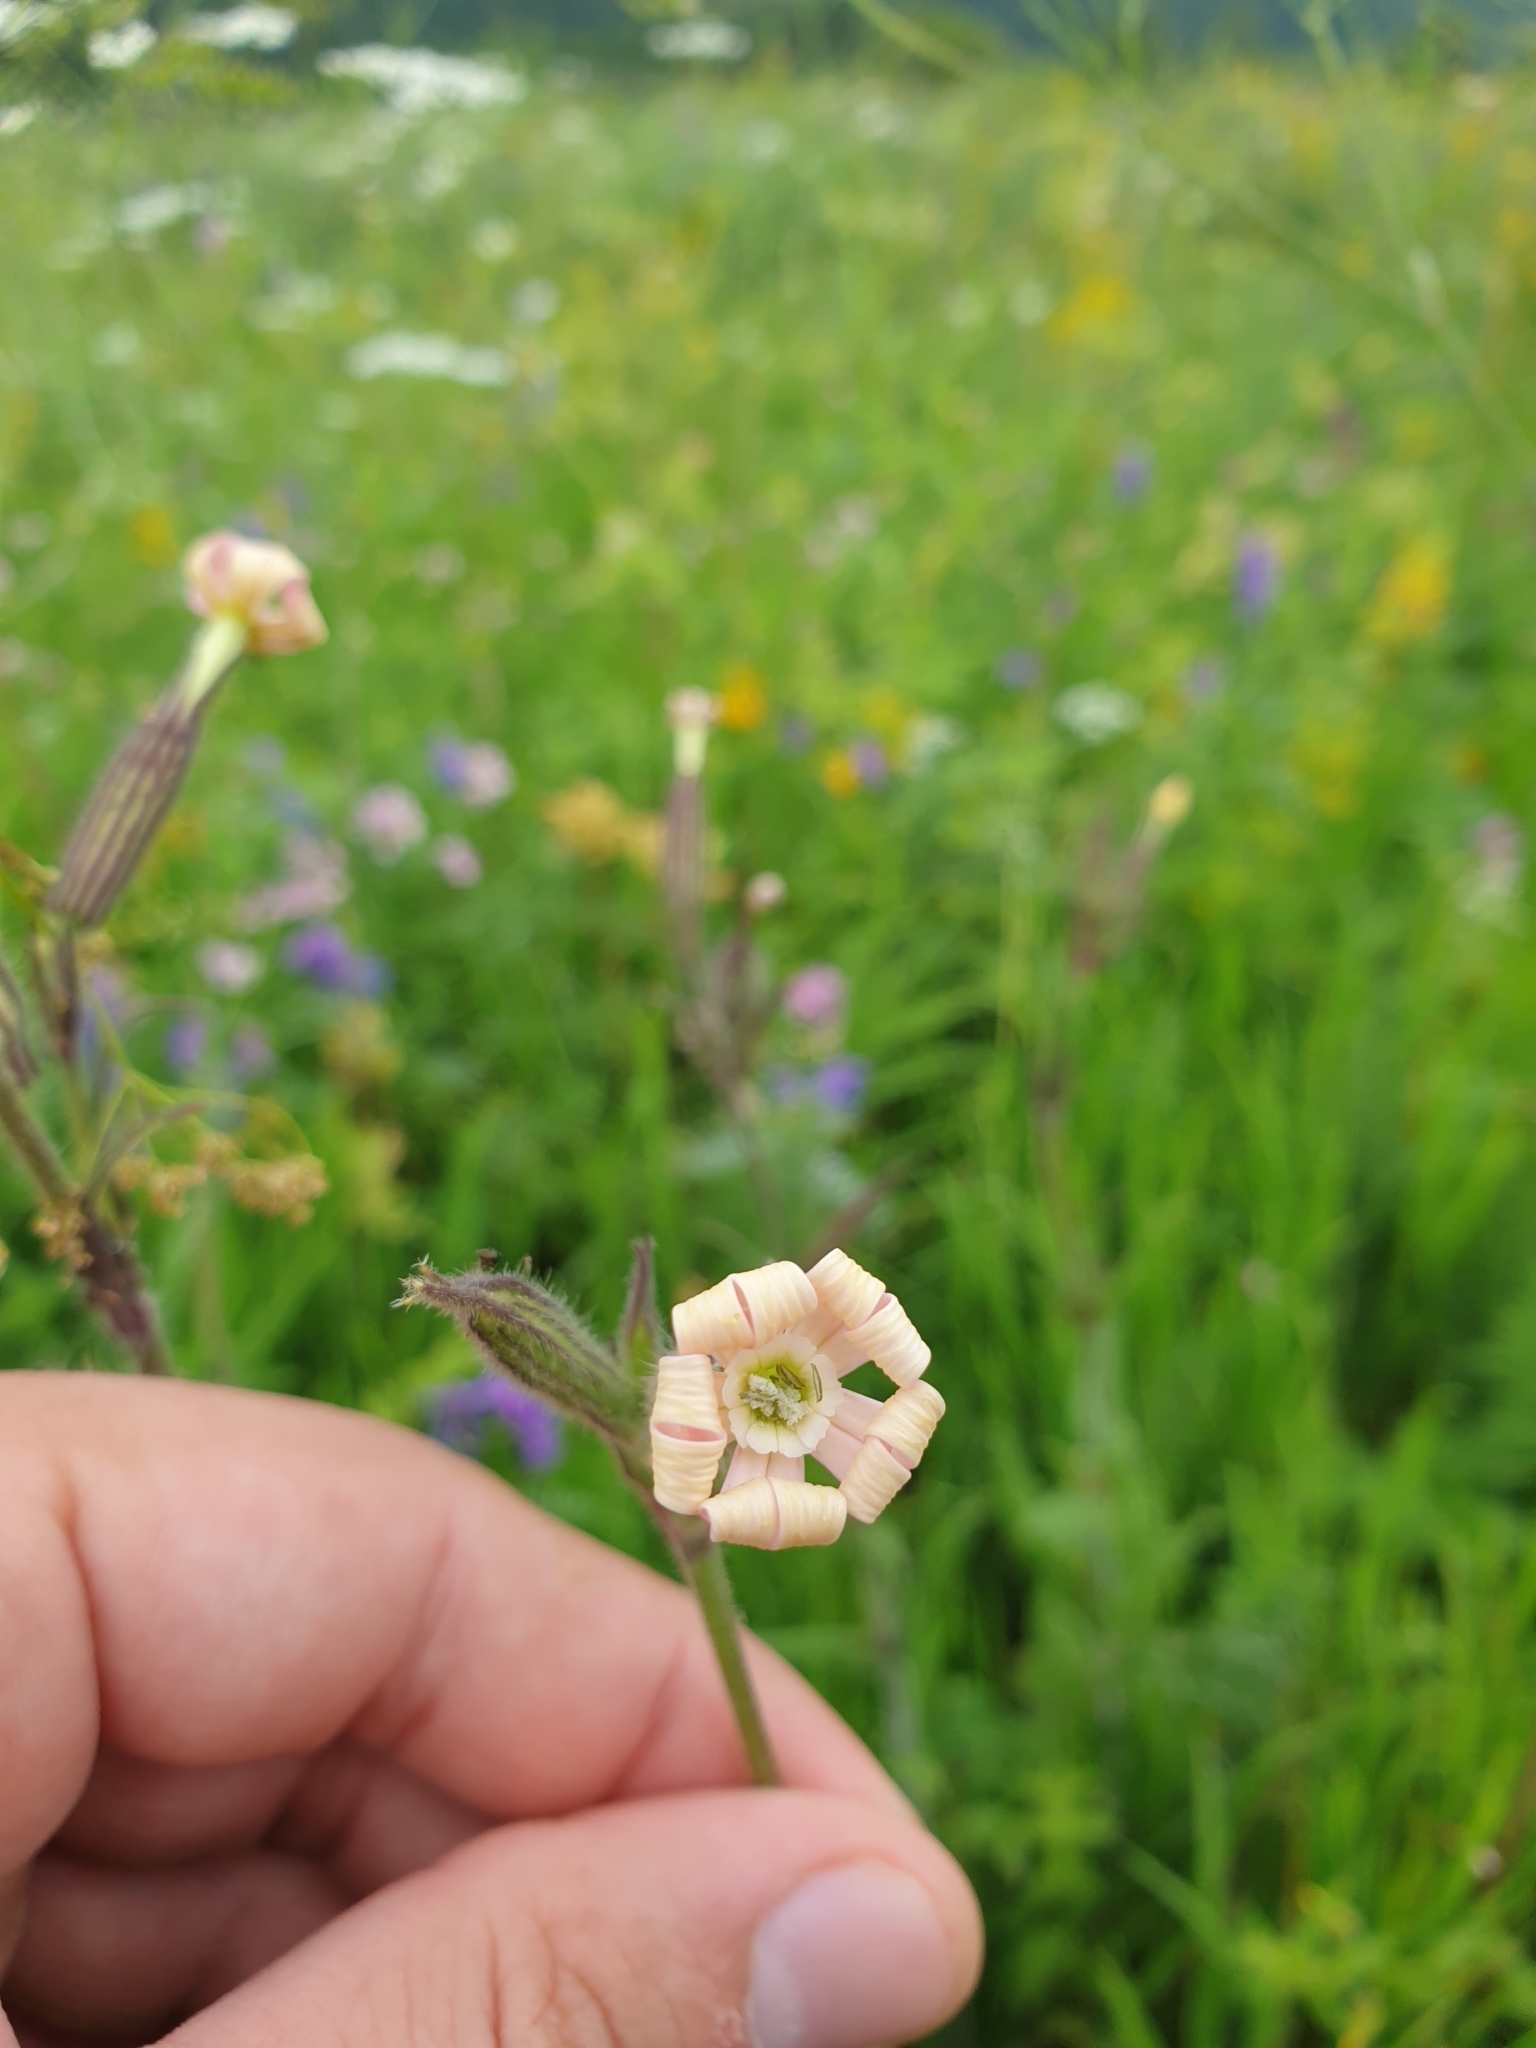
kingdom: Plantae
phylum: Tracheophyta
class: Magnoliopsida
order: Caryophyllales
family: Caryophyllaceae
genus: Silene
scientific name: Silene noctiflora
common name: Night-flowering catchfly
